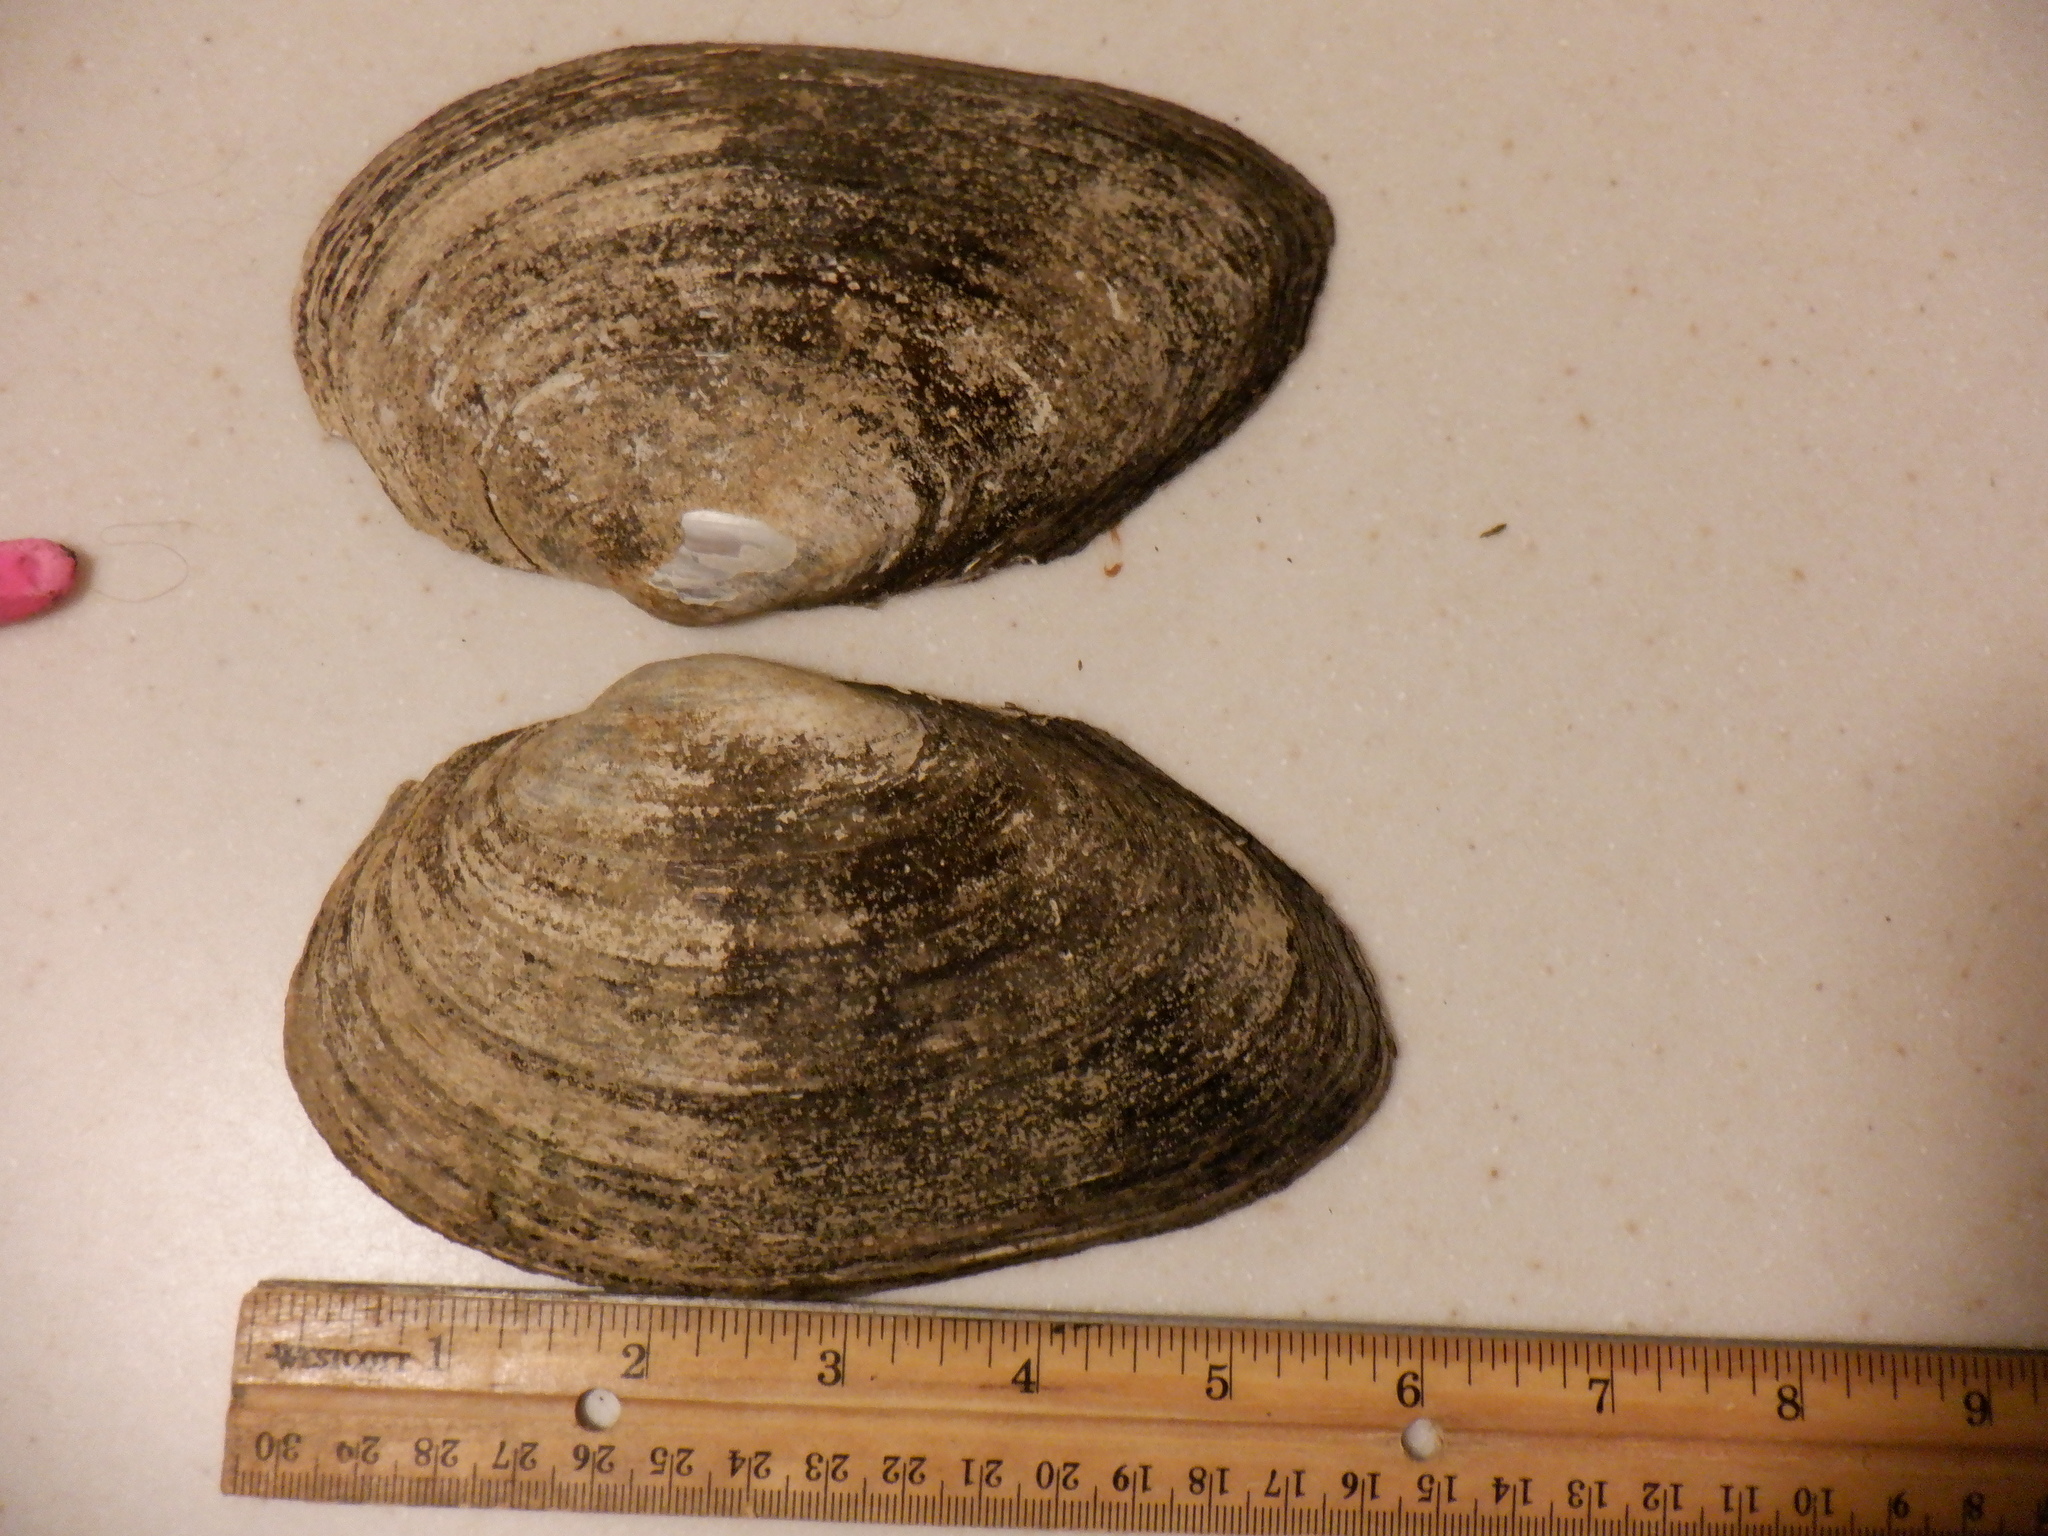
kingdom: Animalia
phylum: Mollusca
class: Bivalvia
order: Unionida
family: Unionidae
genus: Pyganodon
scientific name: Pyganodon grandis
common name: Giant floater
